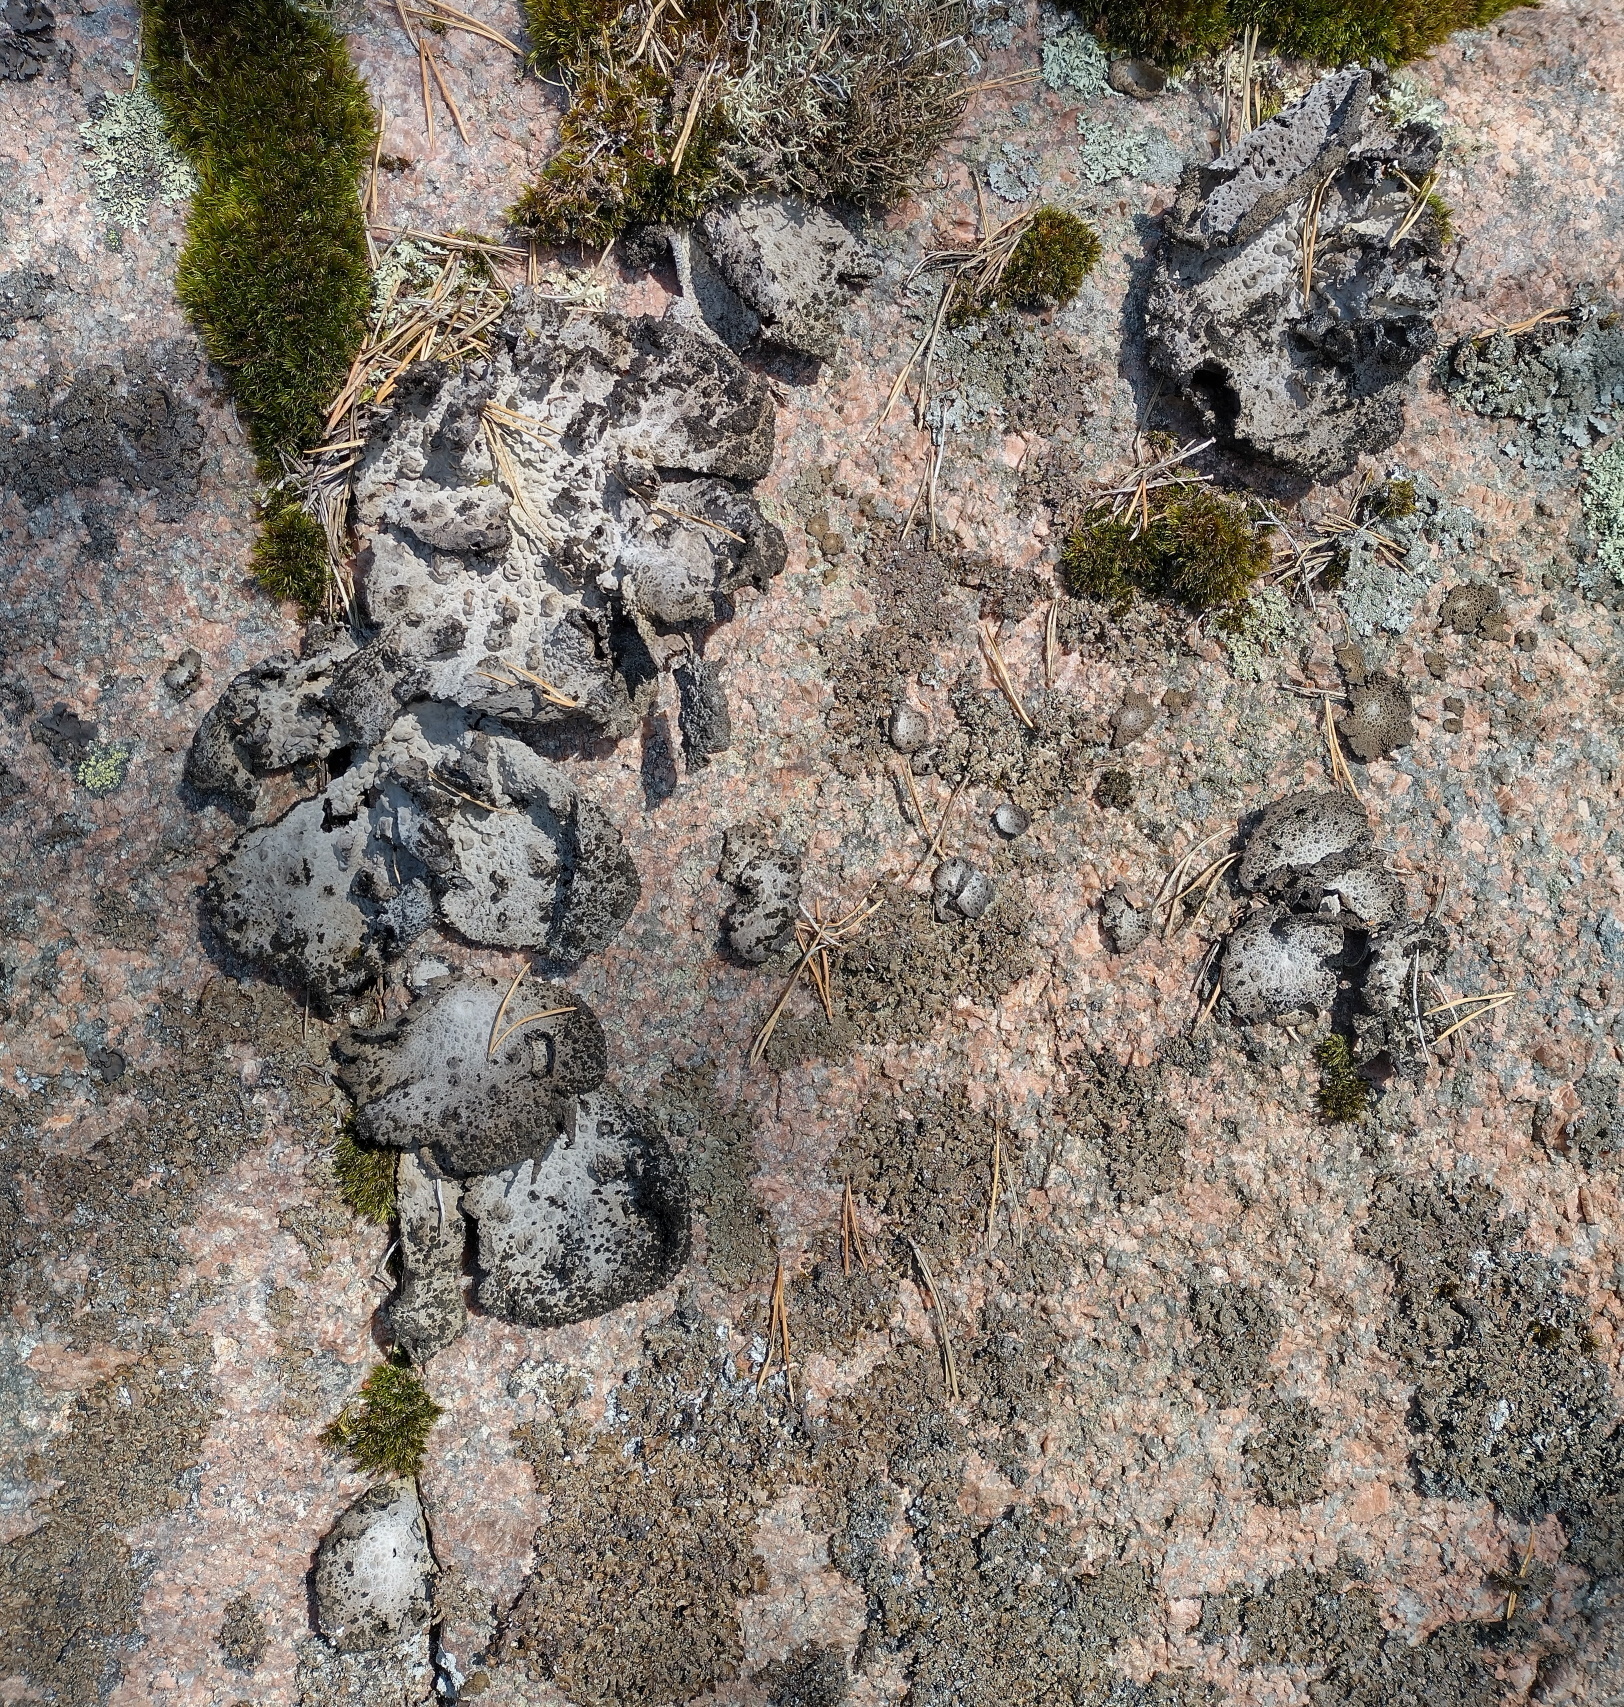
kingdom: Fungi
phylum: Ascomycota
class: Lecanoromycetes
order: Umbilicariales
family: Umbilicariaceae
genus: Lasallia
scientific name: Lasallia pustulata
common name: Blistered toadskin lichen
